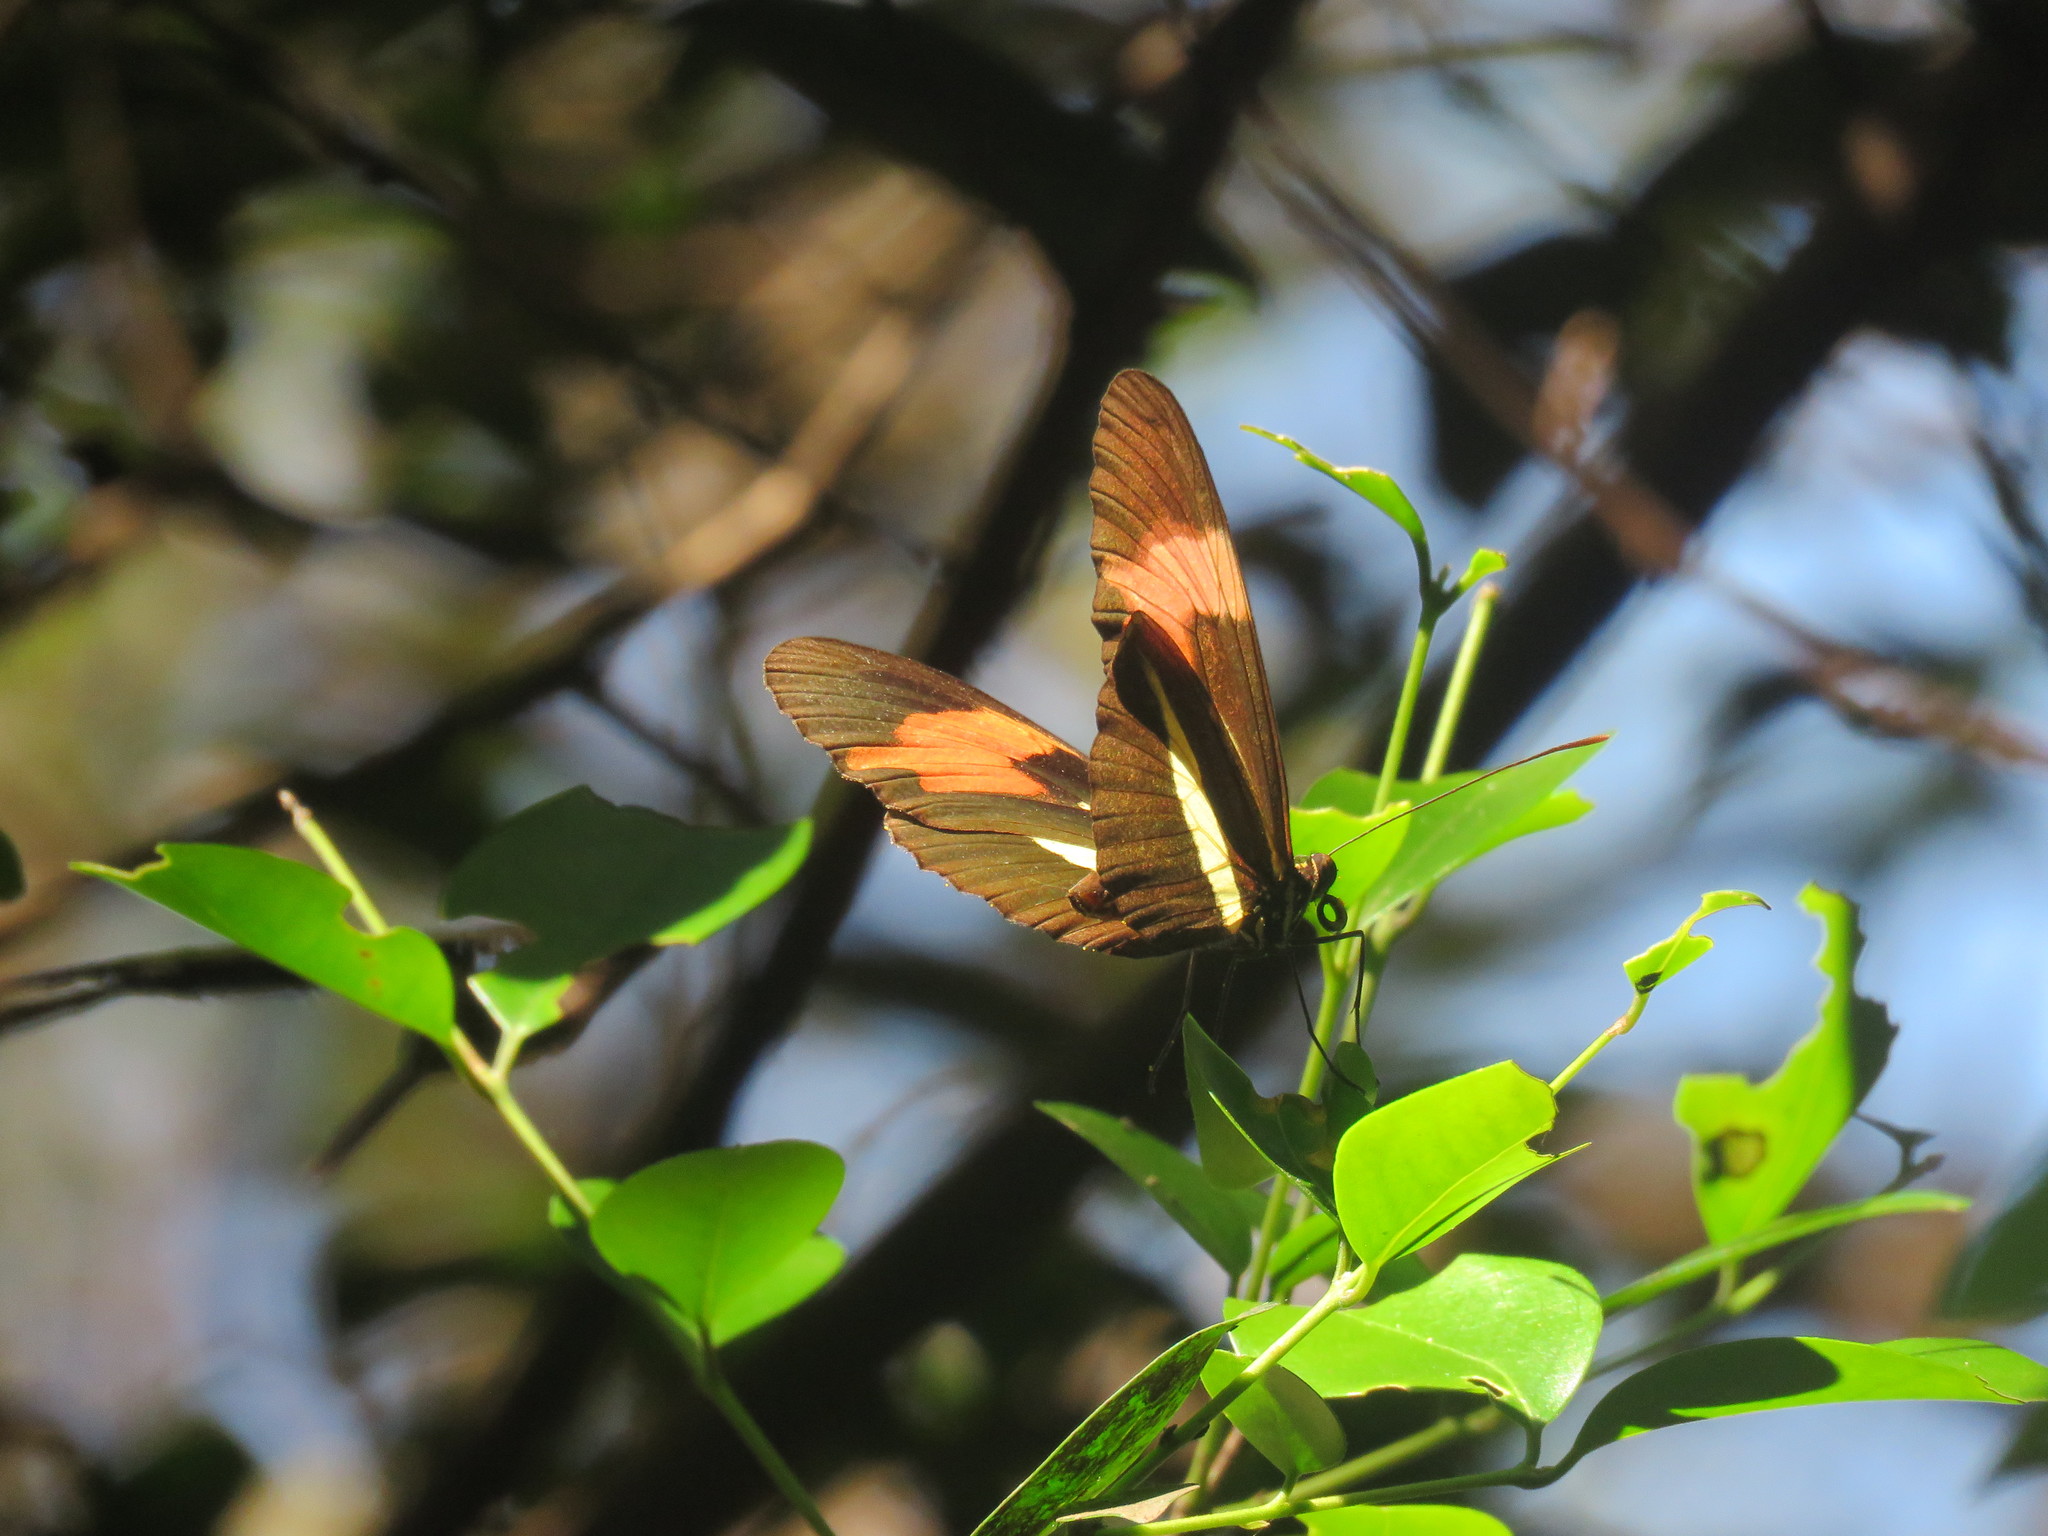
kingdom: Animalia
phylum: Arthropoda
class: Insecta
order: Lepidoptera
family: Nymphalidae
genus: Heliconius
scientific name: Heliconius erato
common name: Common patch longwing
